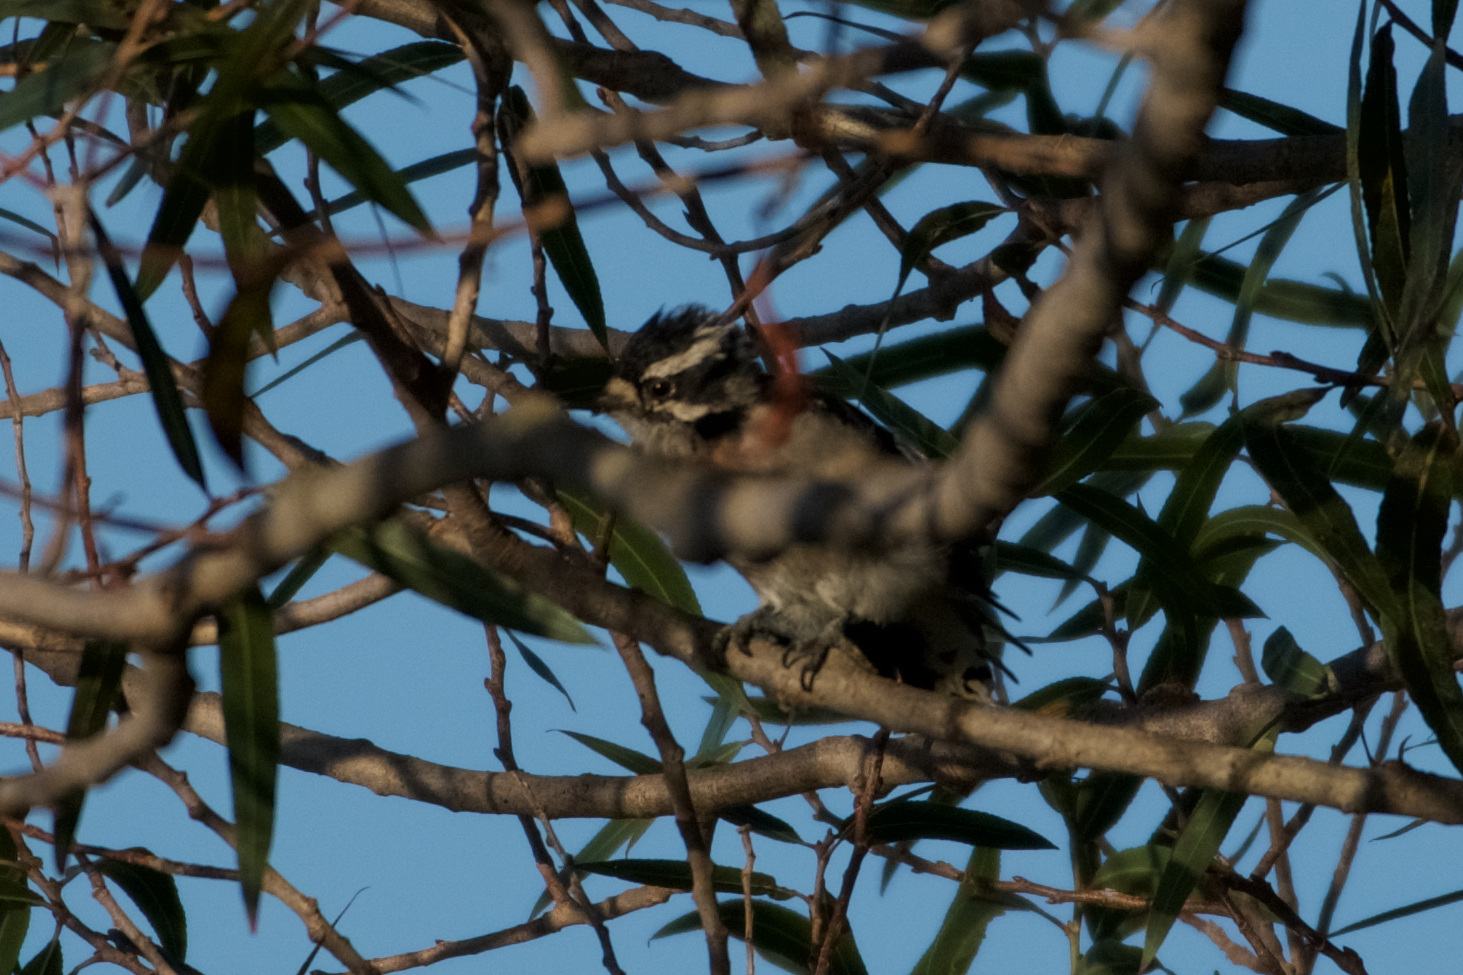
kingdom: Animalia
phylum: Chordata
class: Aves
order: Piciformes
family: Picidae
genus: Dryobates
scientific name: Dryobates pubescens
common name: Downy woodpecker
